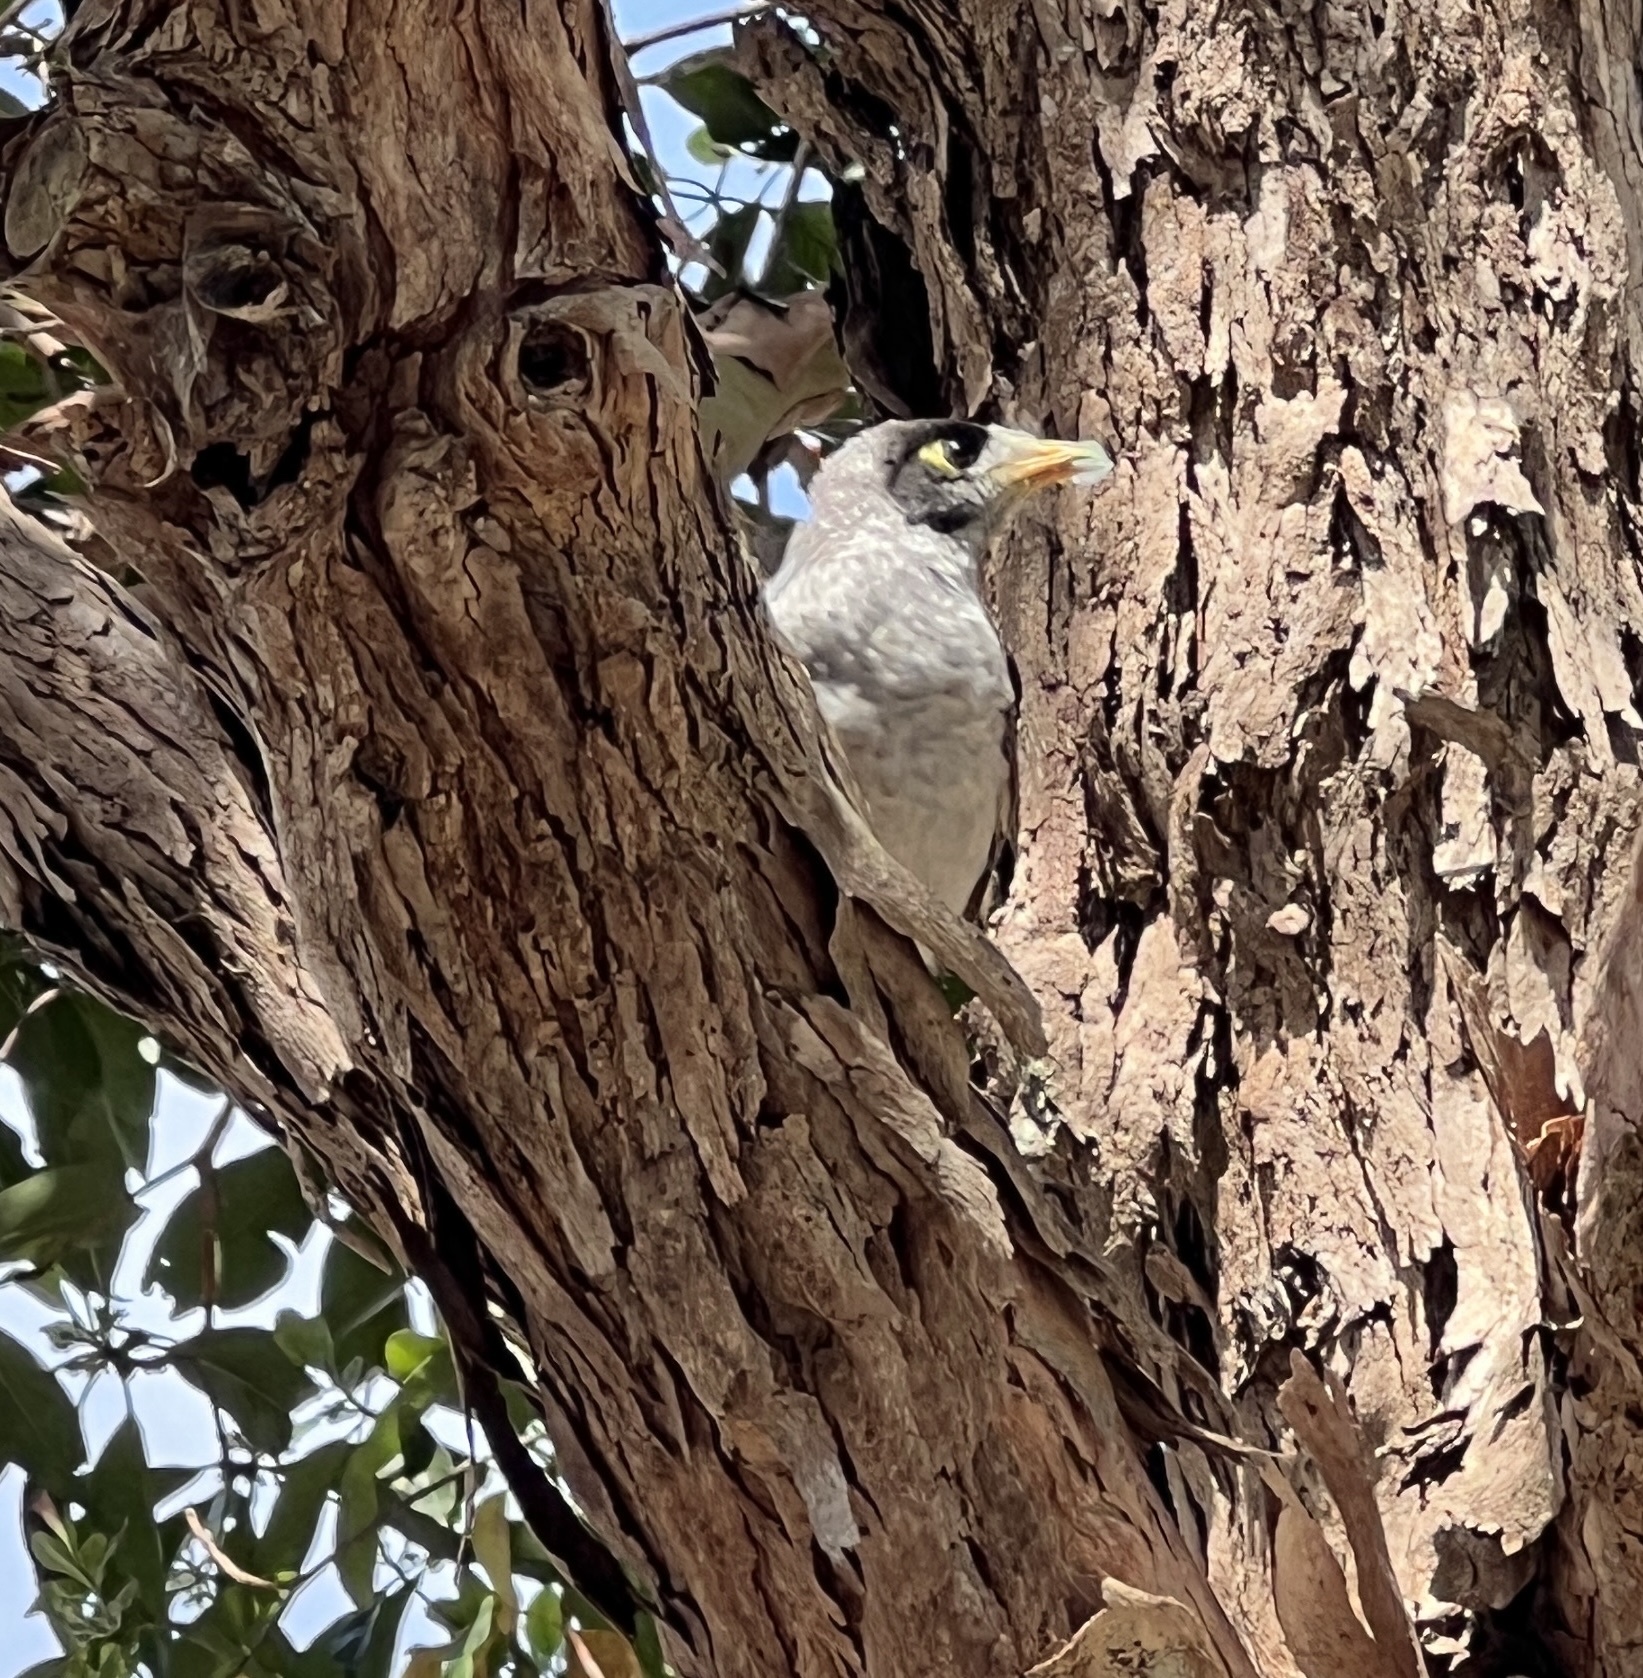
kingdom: Animalia
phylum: Chordata
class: Aves
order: Passeriformes
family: Meliphagidae
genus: Manorina
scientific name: Manorina melanocephala
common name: Noisy miner
